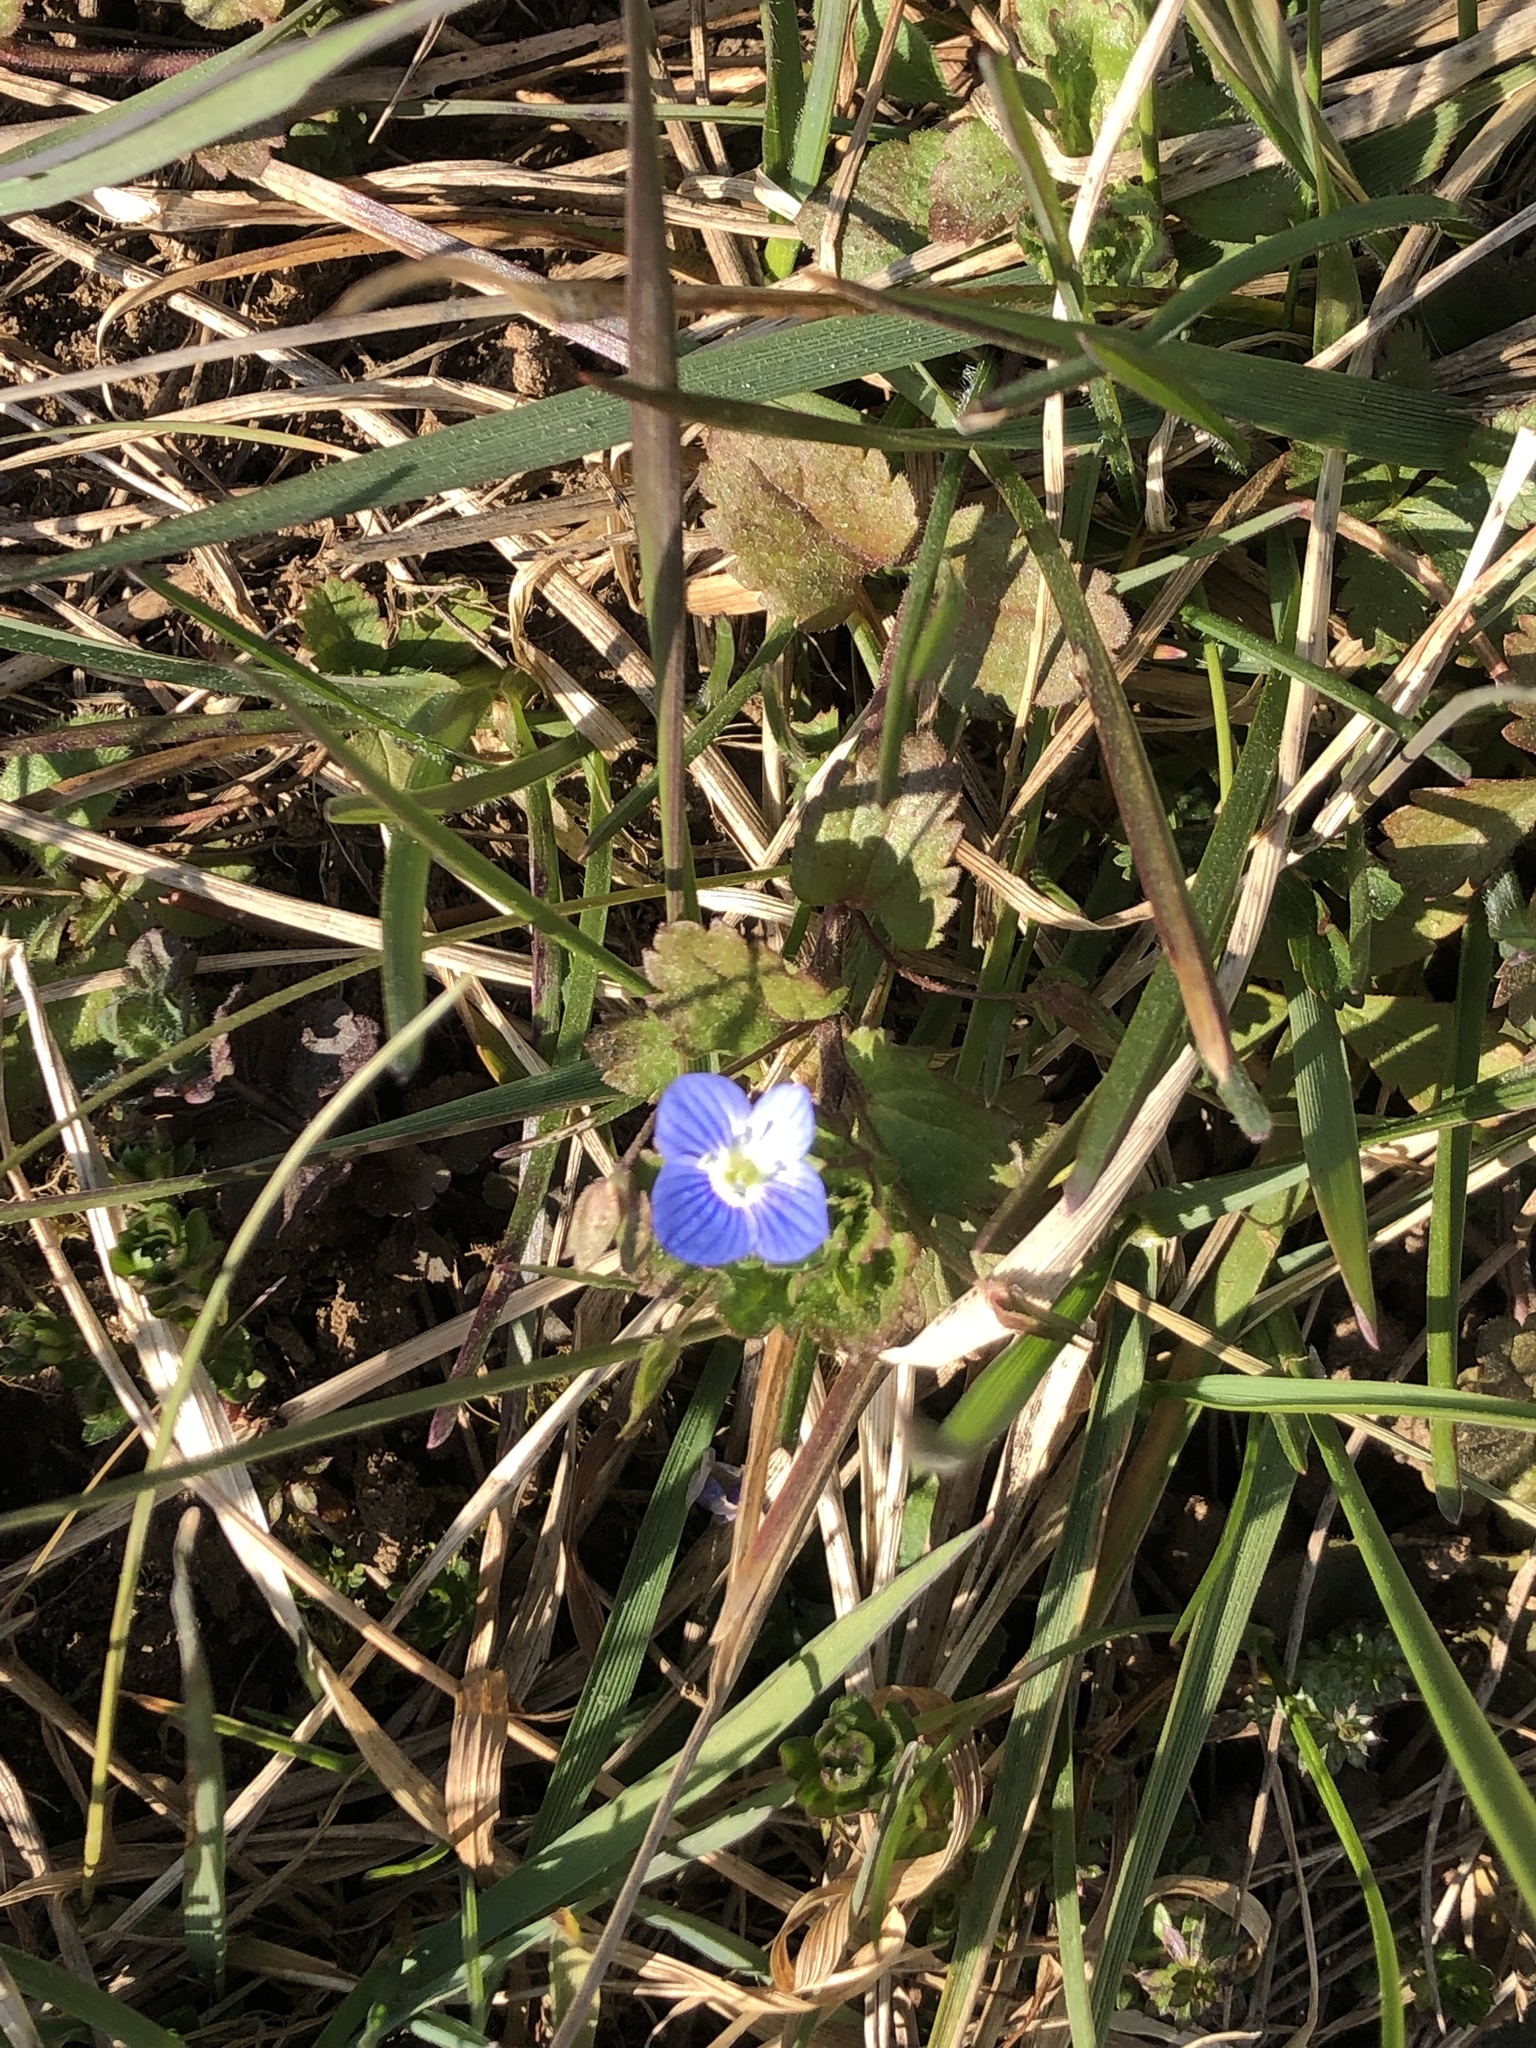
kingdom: Plantae
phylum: Tracheophyta
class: Magnoliopsida
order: Lamiales
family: Plantaginaceae
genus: Veronica
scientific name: Veronica persica
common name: Common field-speedwell
